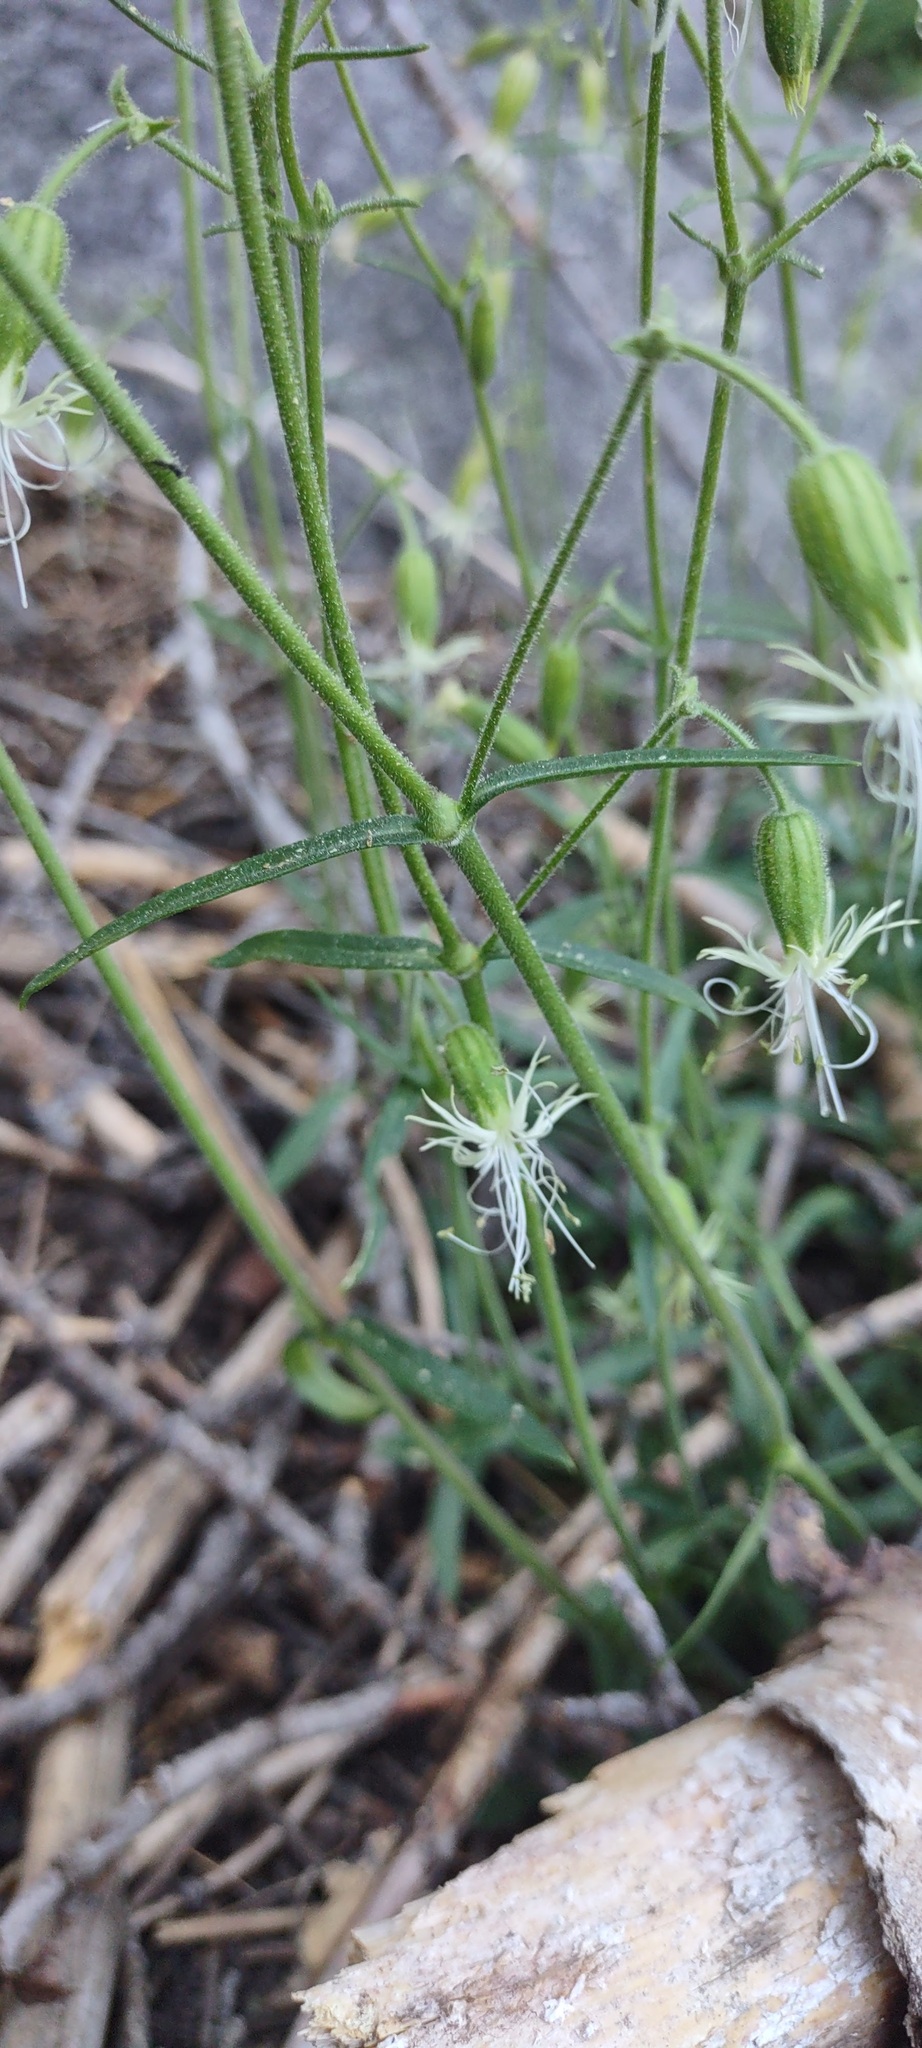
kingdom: Plantae
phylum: Tracheophyta
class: Magnoliopsida
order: Caryophyllales
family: Caryophyllaceae
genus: Silene
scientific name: Silene lemmonii
